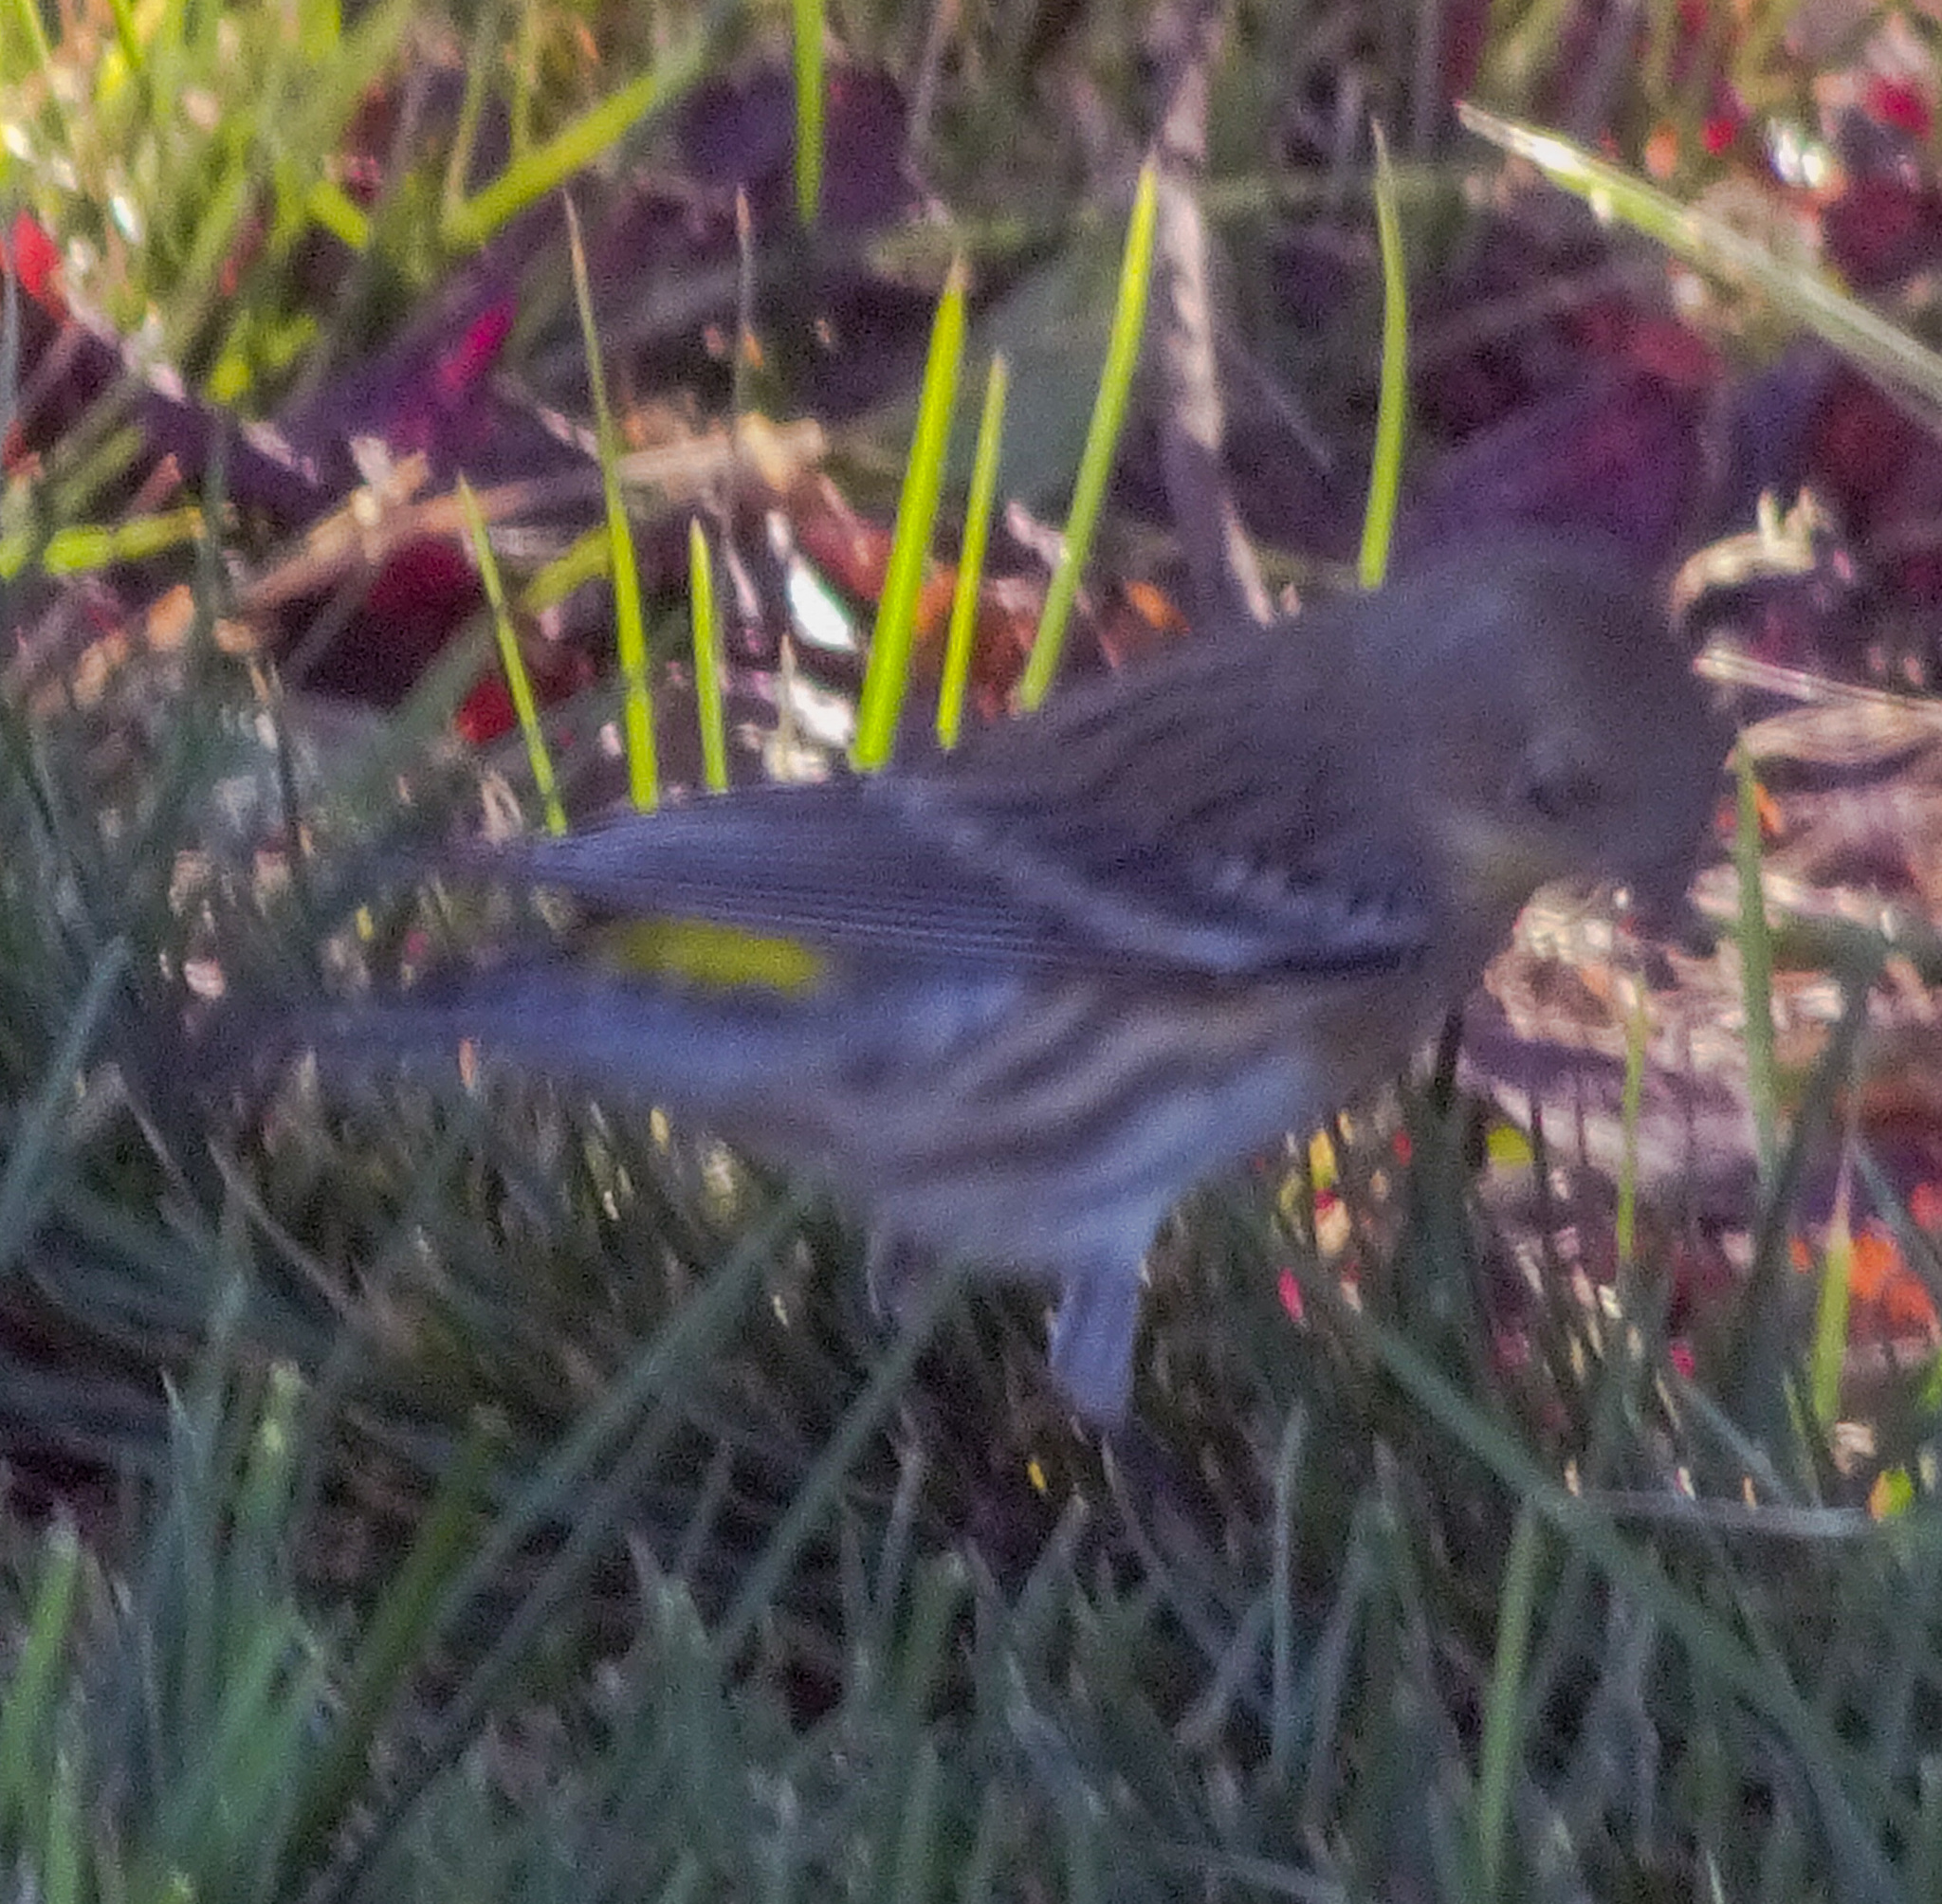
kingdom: Animalia
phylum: Chordata
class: Aves
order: Passeriformes
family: Parulidae
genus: Setophaga
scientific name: Setophaga coronata
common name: Myrtle warbler
